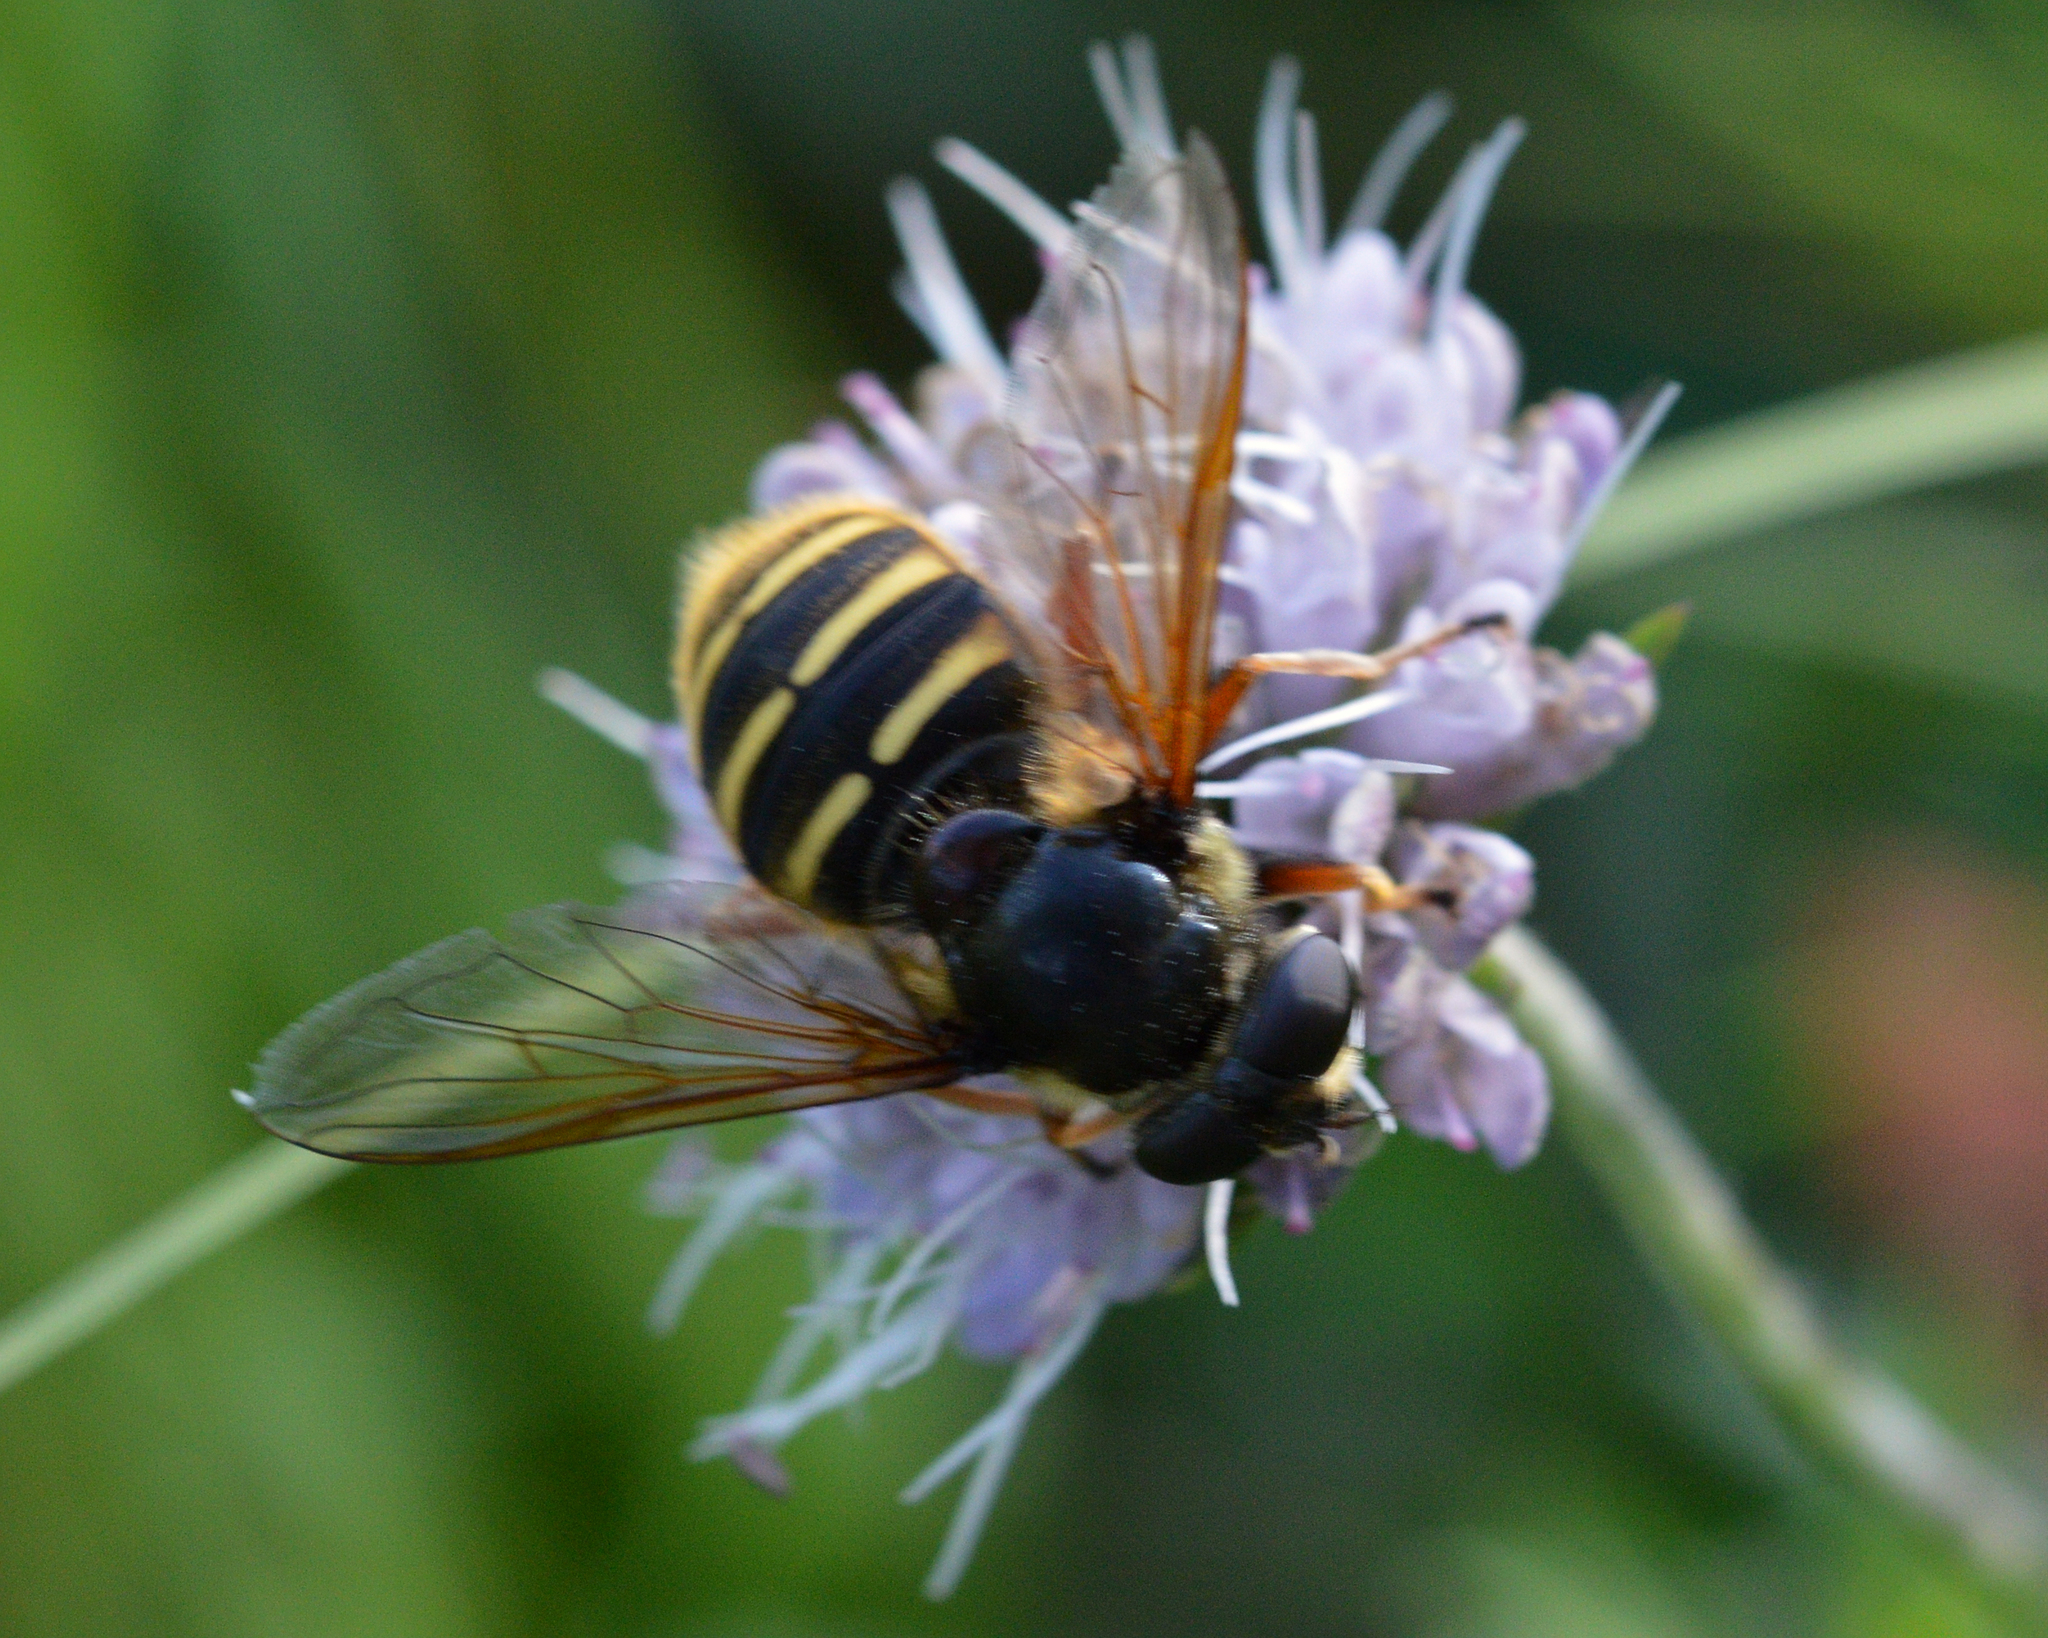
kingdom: Animalia
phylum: Arthropoda
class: Insecta
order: Diptera
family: Syrphidae
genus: Sericomyia
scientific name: Sericomyia silentis
